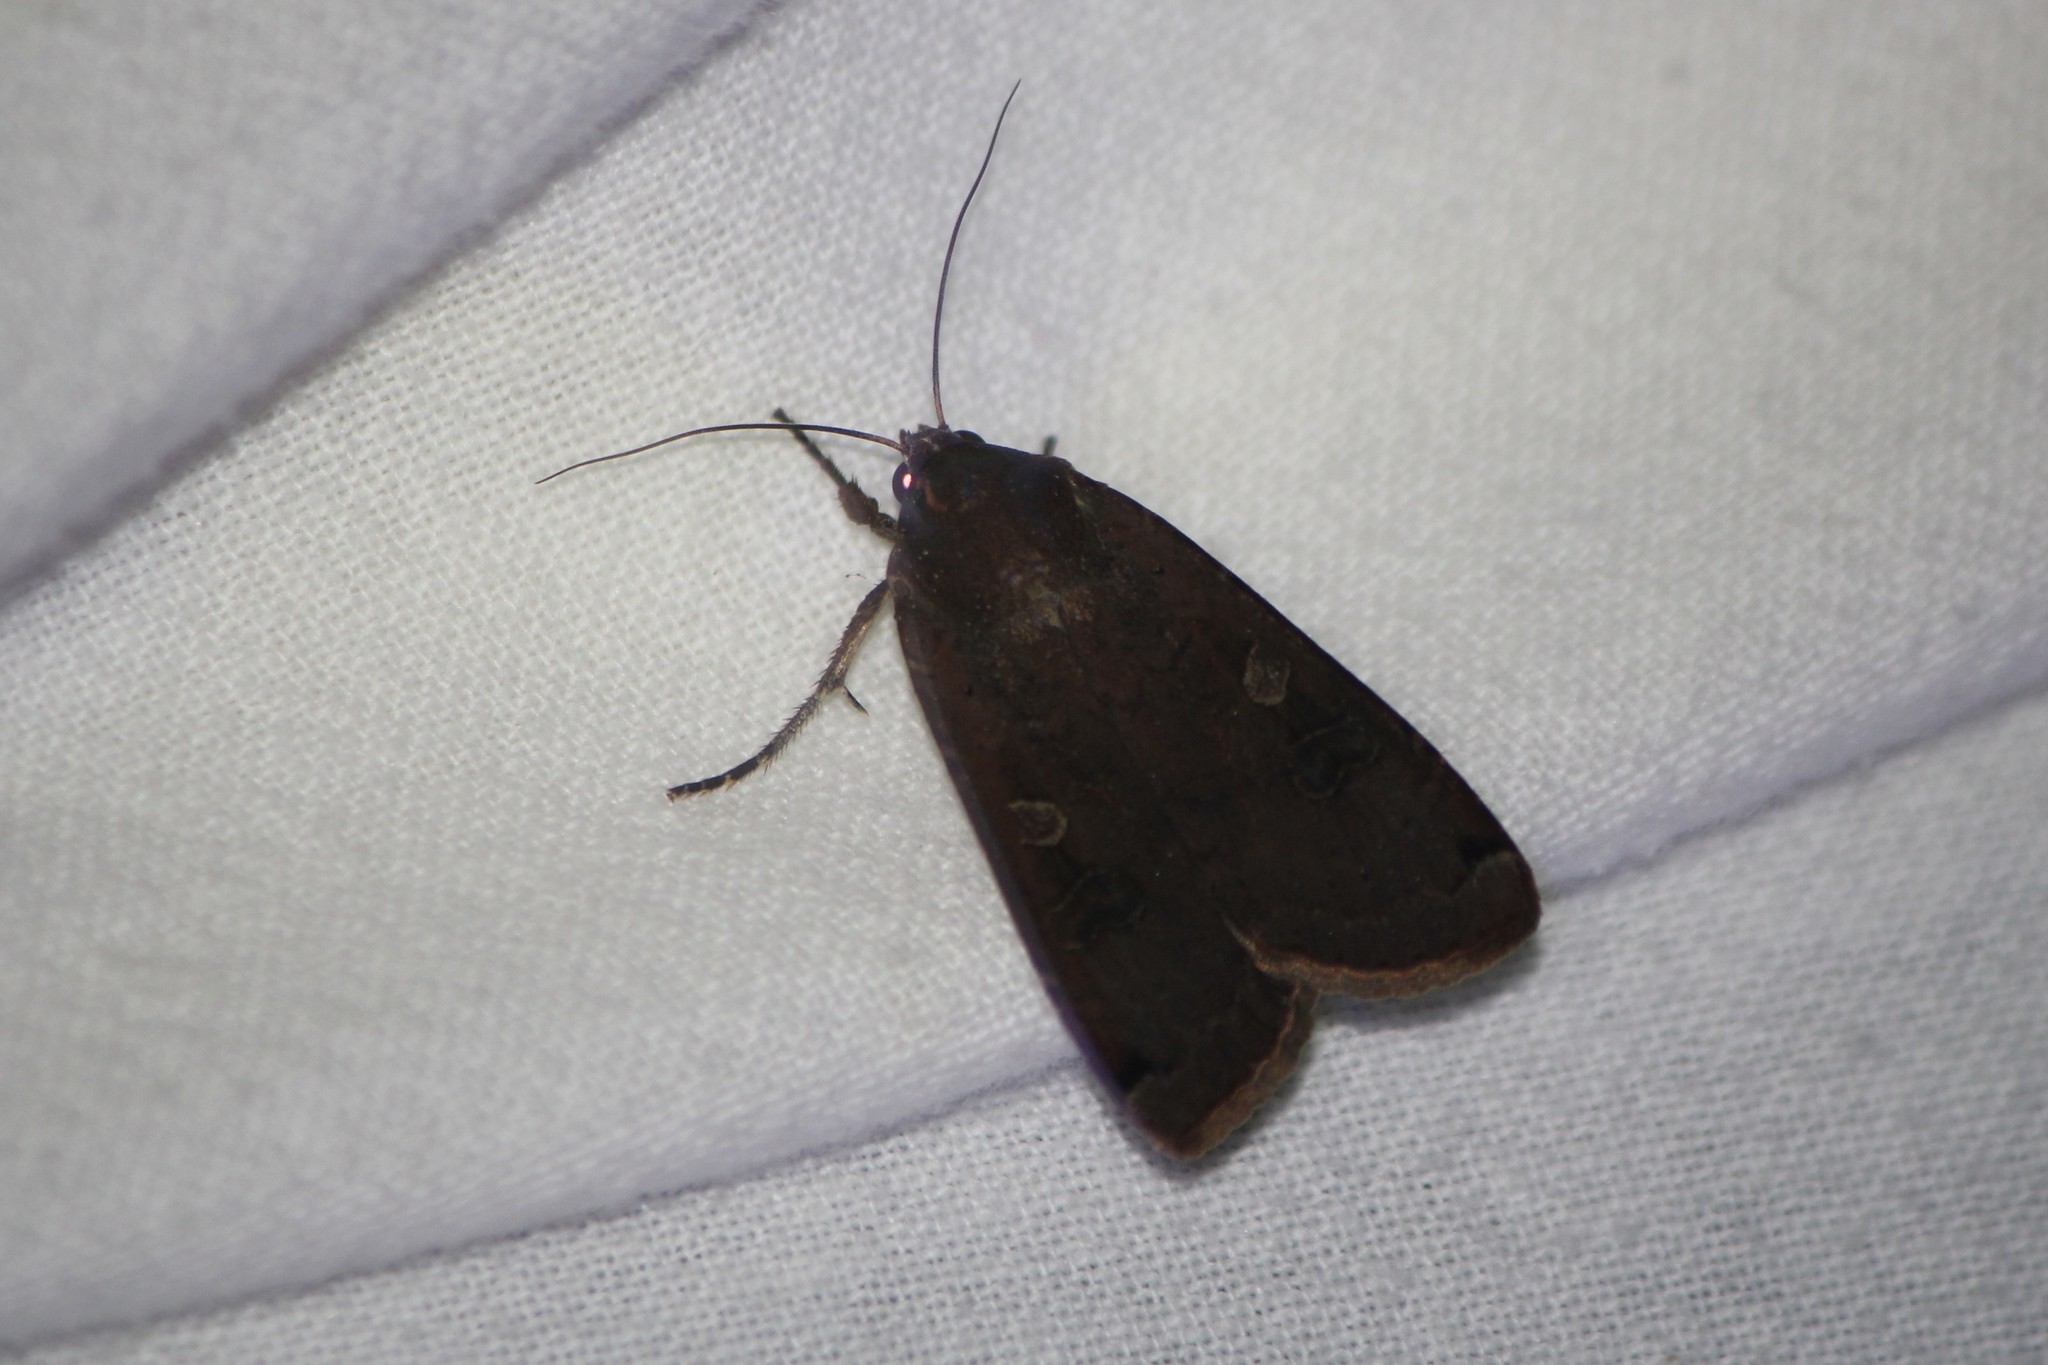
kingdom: Animalia
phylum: Arthropoda
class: Insecta
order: Lepidoptera
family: Noctuidae
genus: Noctua
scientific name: Noctua pronuba
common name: Large yellow underwing
